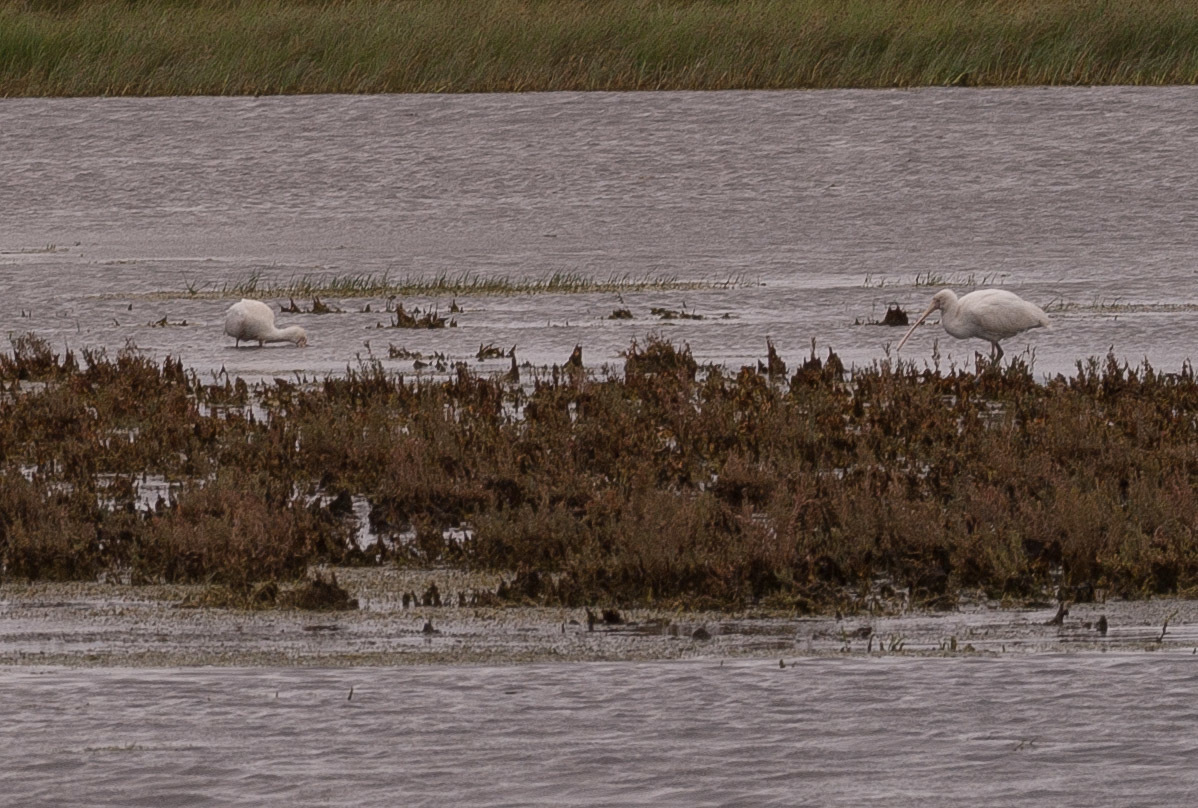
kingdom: Animalia
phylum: Chordata
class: Aves
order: Pelecaniformes
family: Threskiornithidae
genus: Platalea
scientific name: Platalea flavipes
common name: Yellow-billed spoonbill
